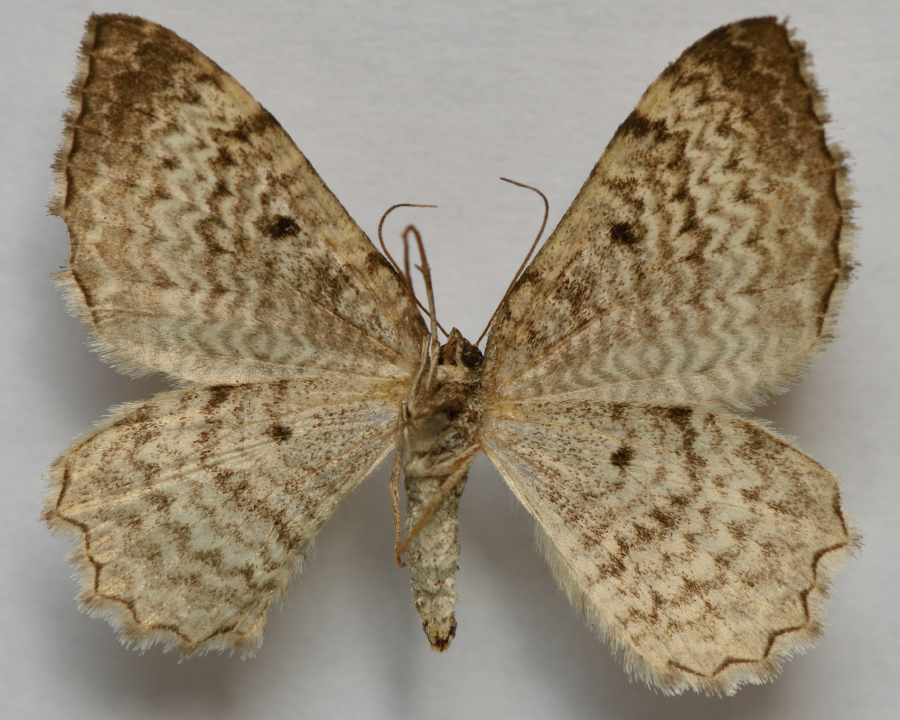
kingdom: Animalia
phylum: Arthropoda
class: Insecta
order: Lepidoptera
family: Geometridae
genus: Rheumaptera
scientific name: Rheumaptera undulata
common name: Scallop shell
